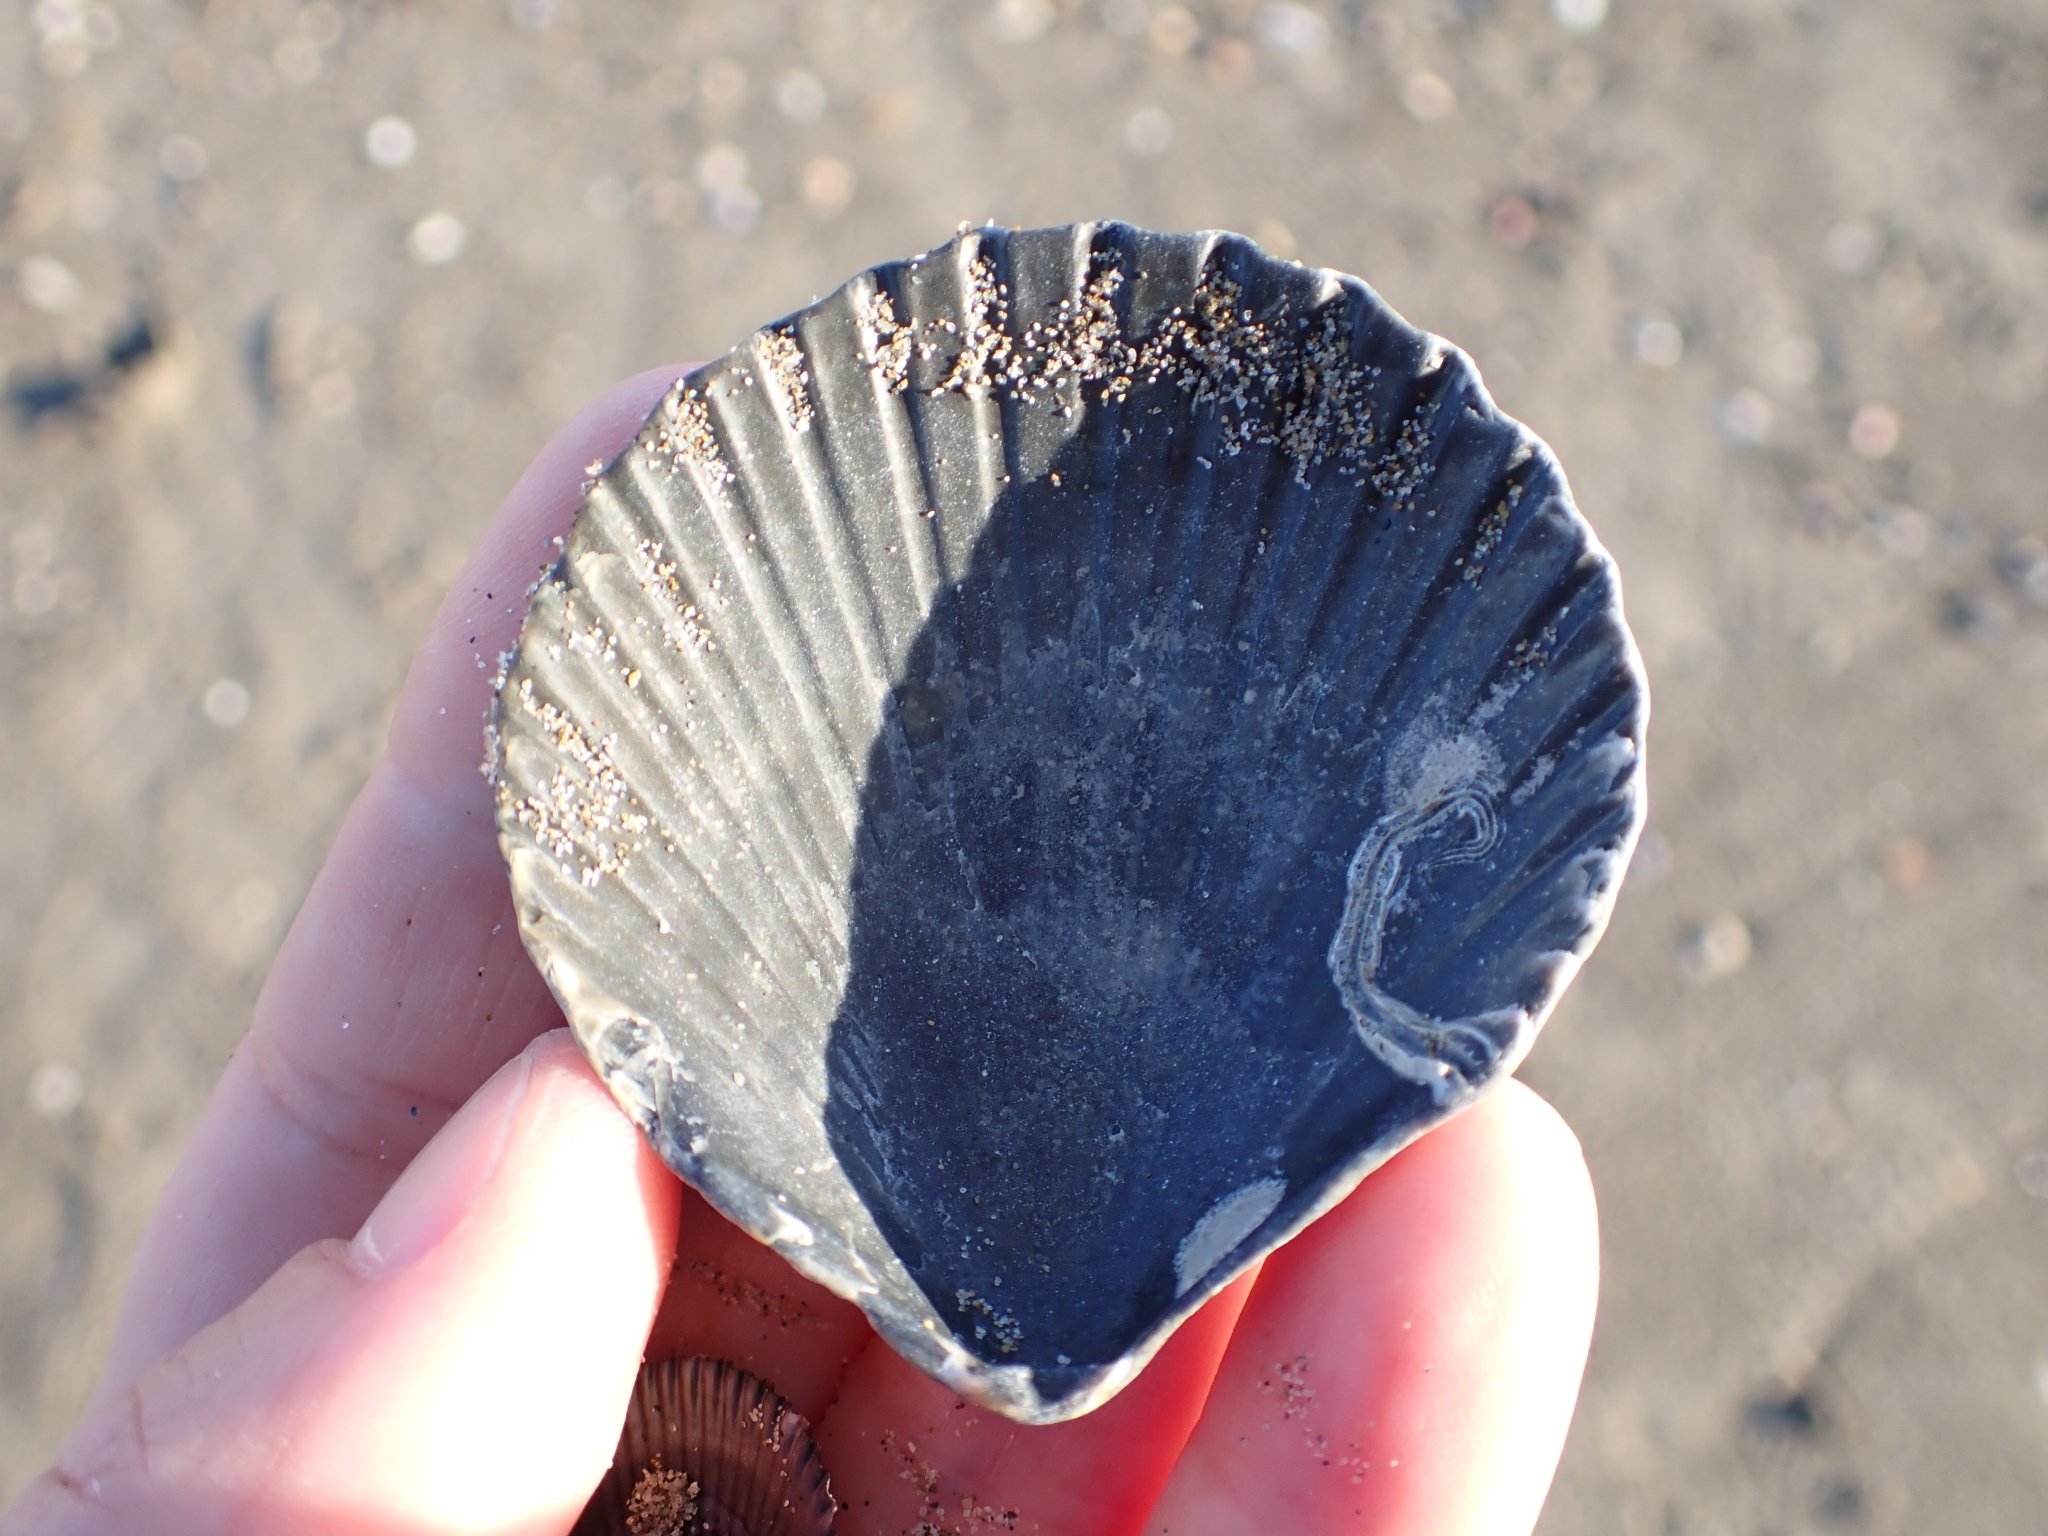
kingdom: Animalia
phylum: Mollusca
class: Bivalvia
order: Pectinida
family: Pectinidae
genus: Aequipecten
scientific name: Aequipecten opercularis
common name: Queen scallop
